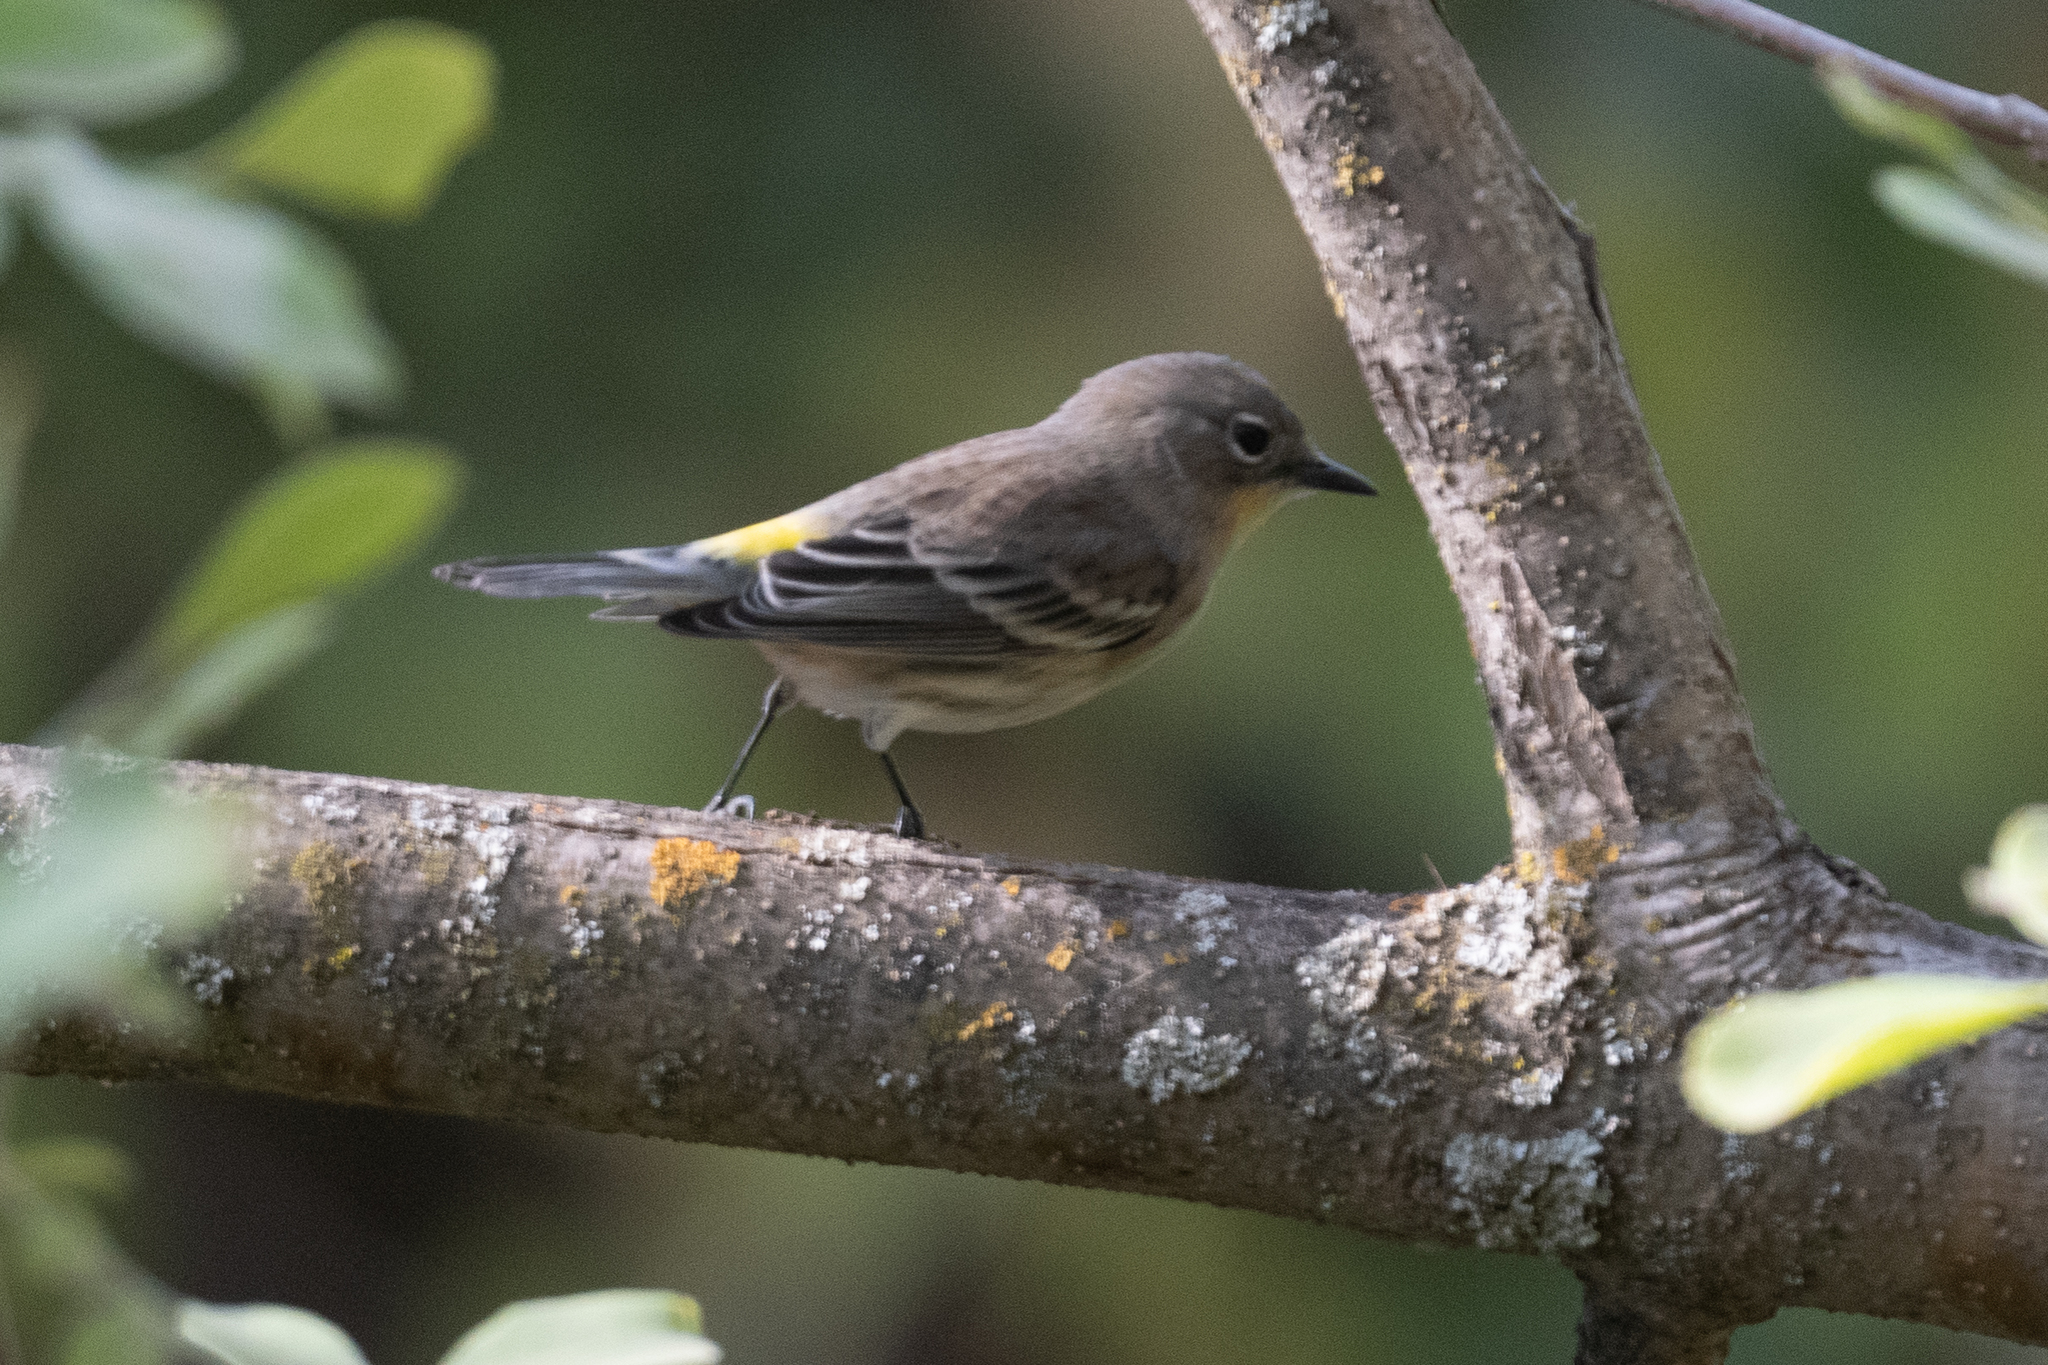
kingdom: Animalia
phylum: Chordata
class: Aves
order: Passeriformes
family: Parulidae
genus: Setophaga
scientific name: Setophaga coronata
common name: Myrtle warbler
